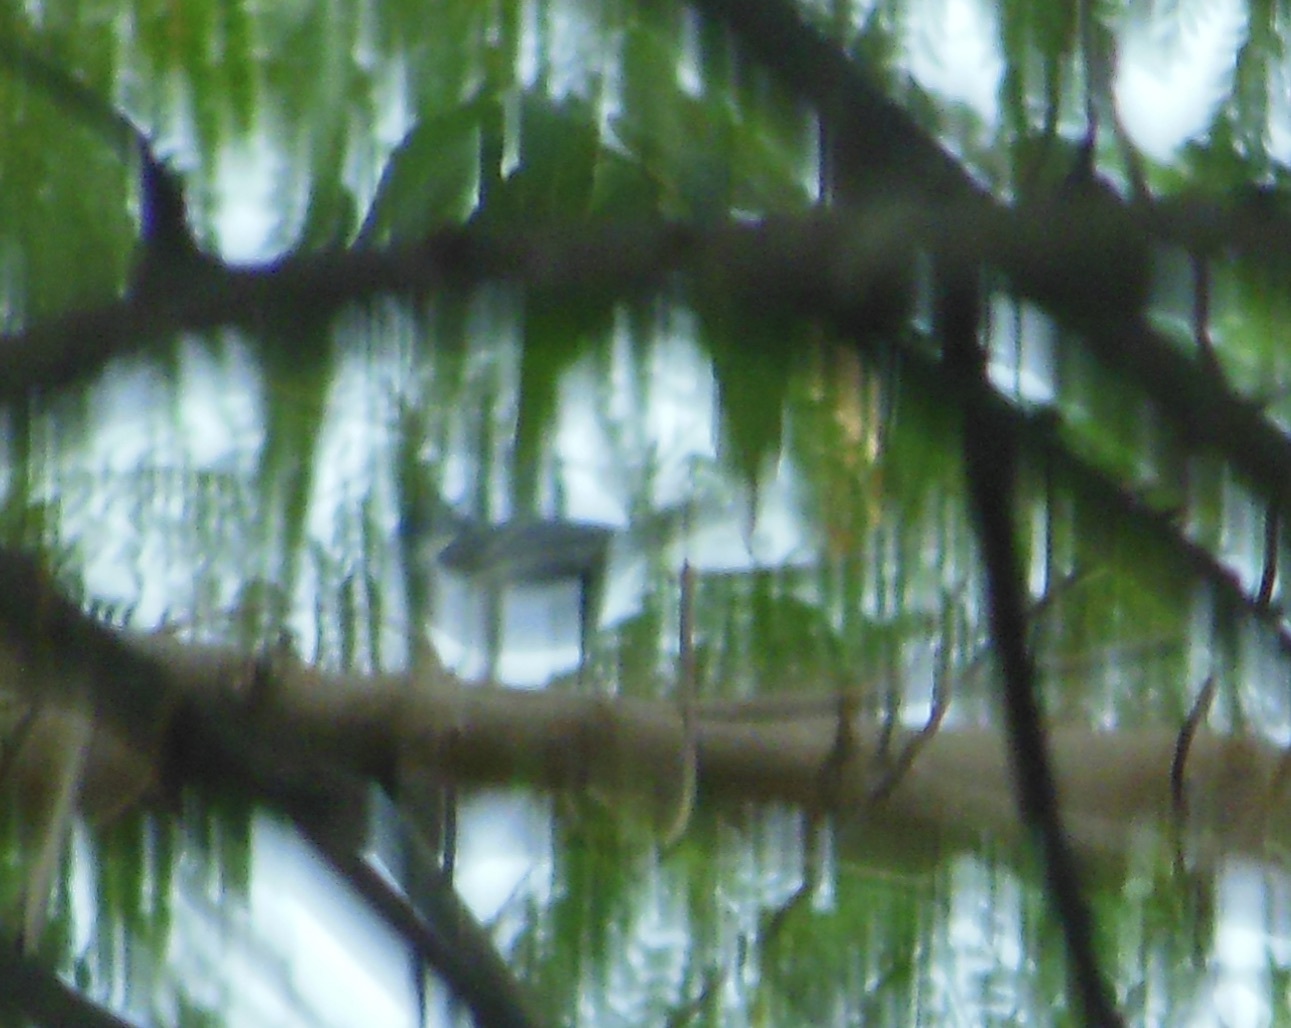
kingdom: Animalia
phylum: Chordata
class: Aves
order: Passeriformes
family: Pycnonotidae
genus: Pycnonotus
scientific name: Pycnonotus jocosus
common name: Red-whiskered bulbul
